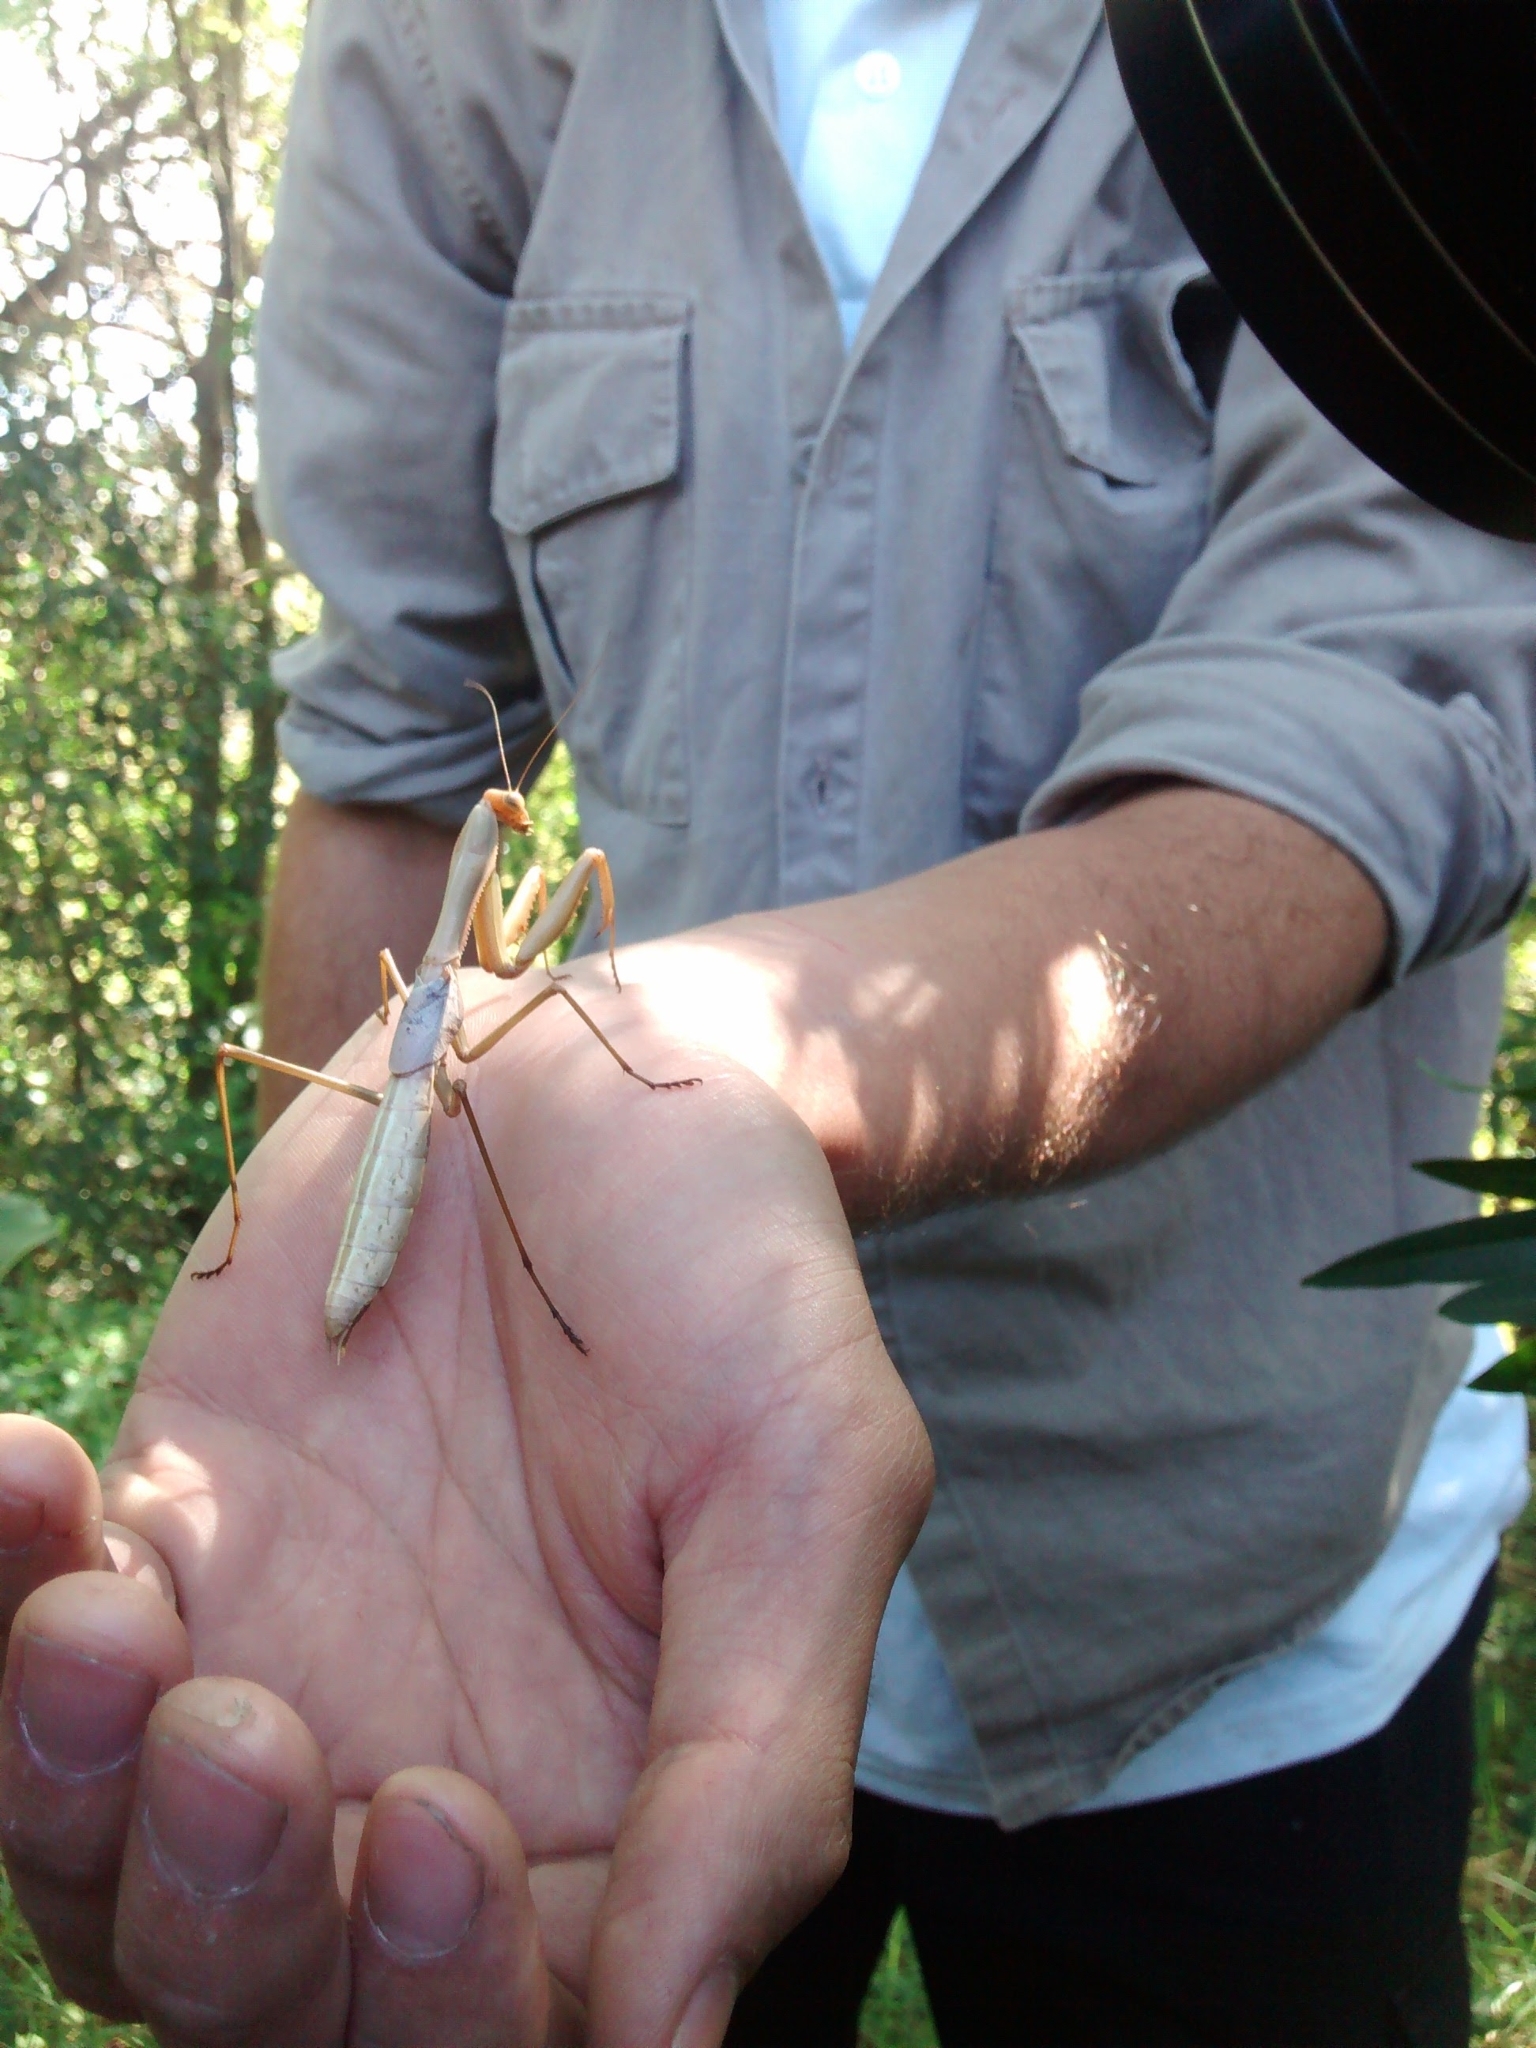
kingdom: Animalia
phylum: Arthropoda
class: Insecta
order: Mantodea
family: Coptopterygidae
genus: Coptopteryx
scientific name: Coptopteryx argentina
